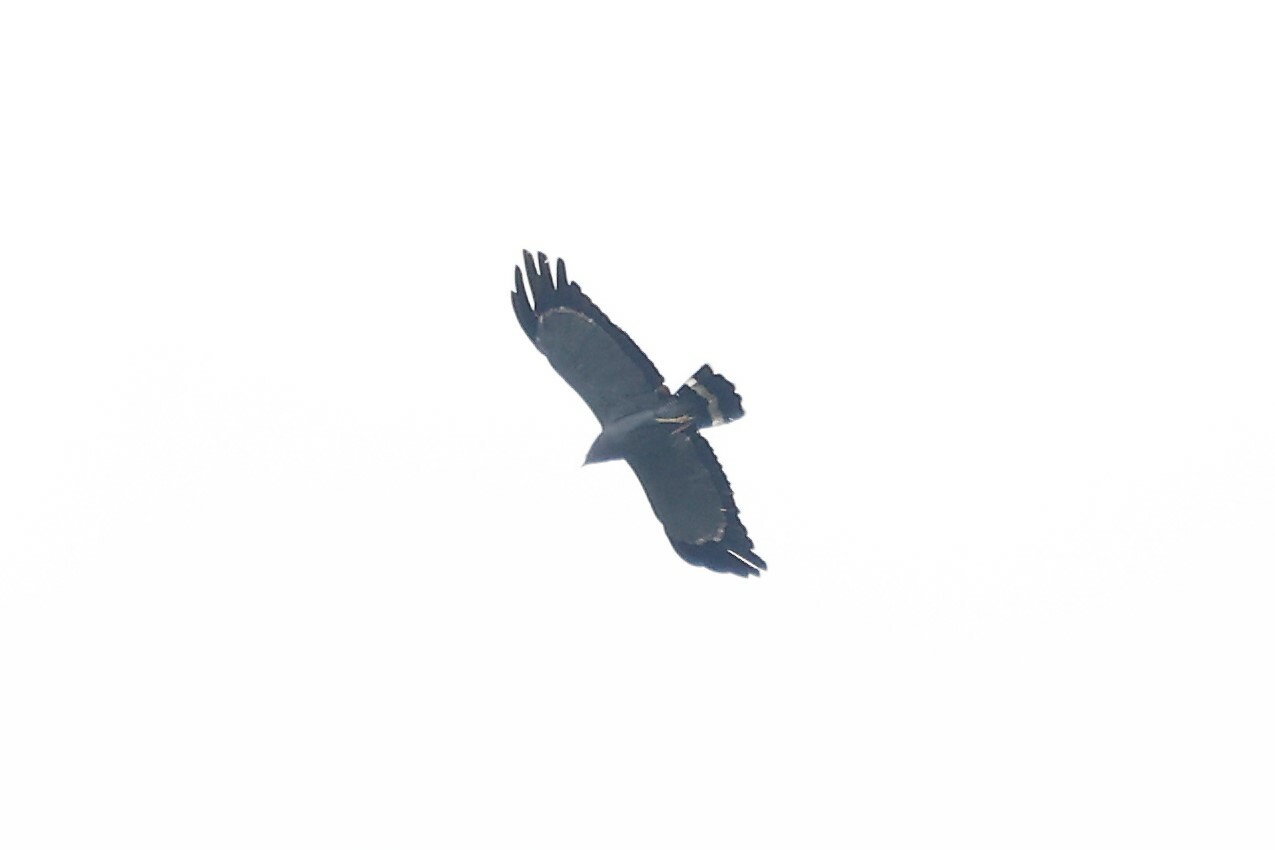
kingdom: Animalia
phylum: Chordata
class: Aves
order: Accipitriformes
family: Accipitridae
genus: Polyboroides
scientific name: Polyboroides typus
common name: African harrier-hawk
